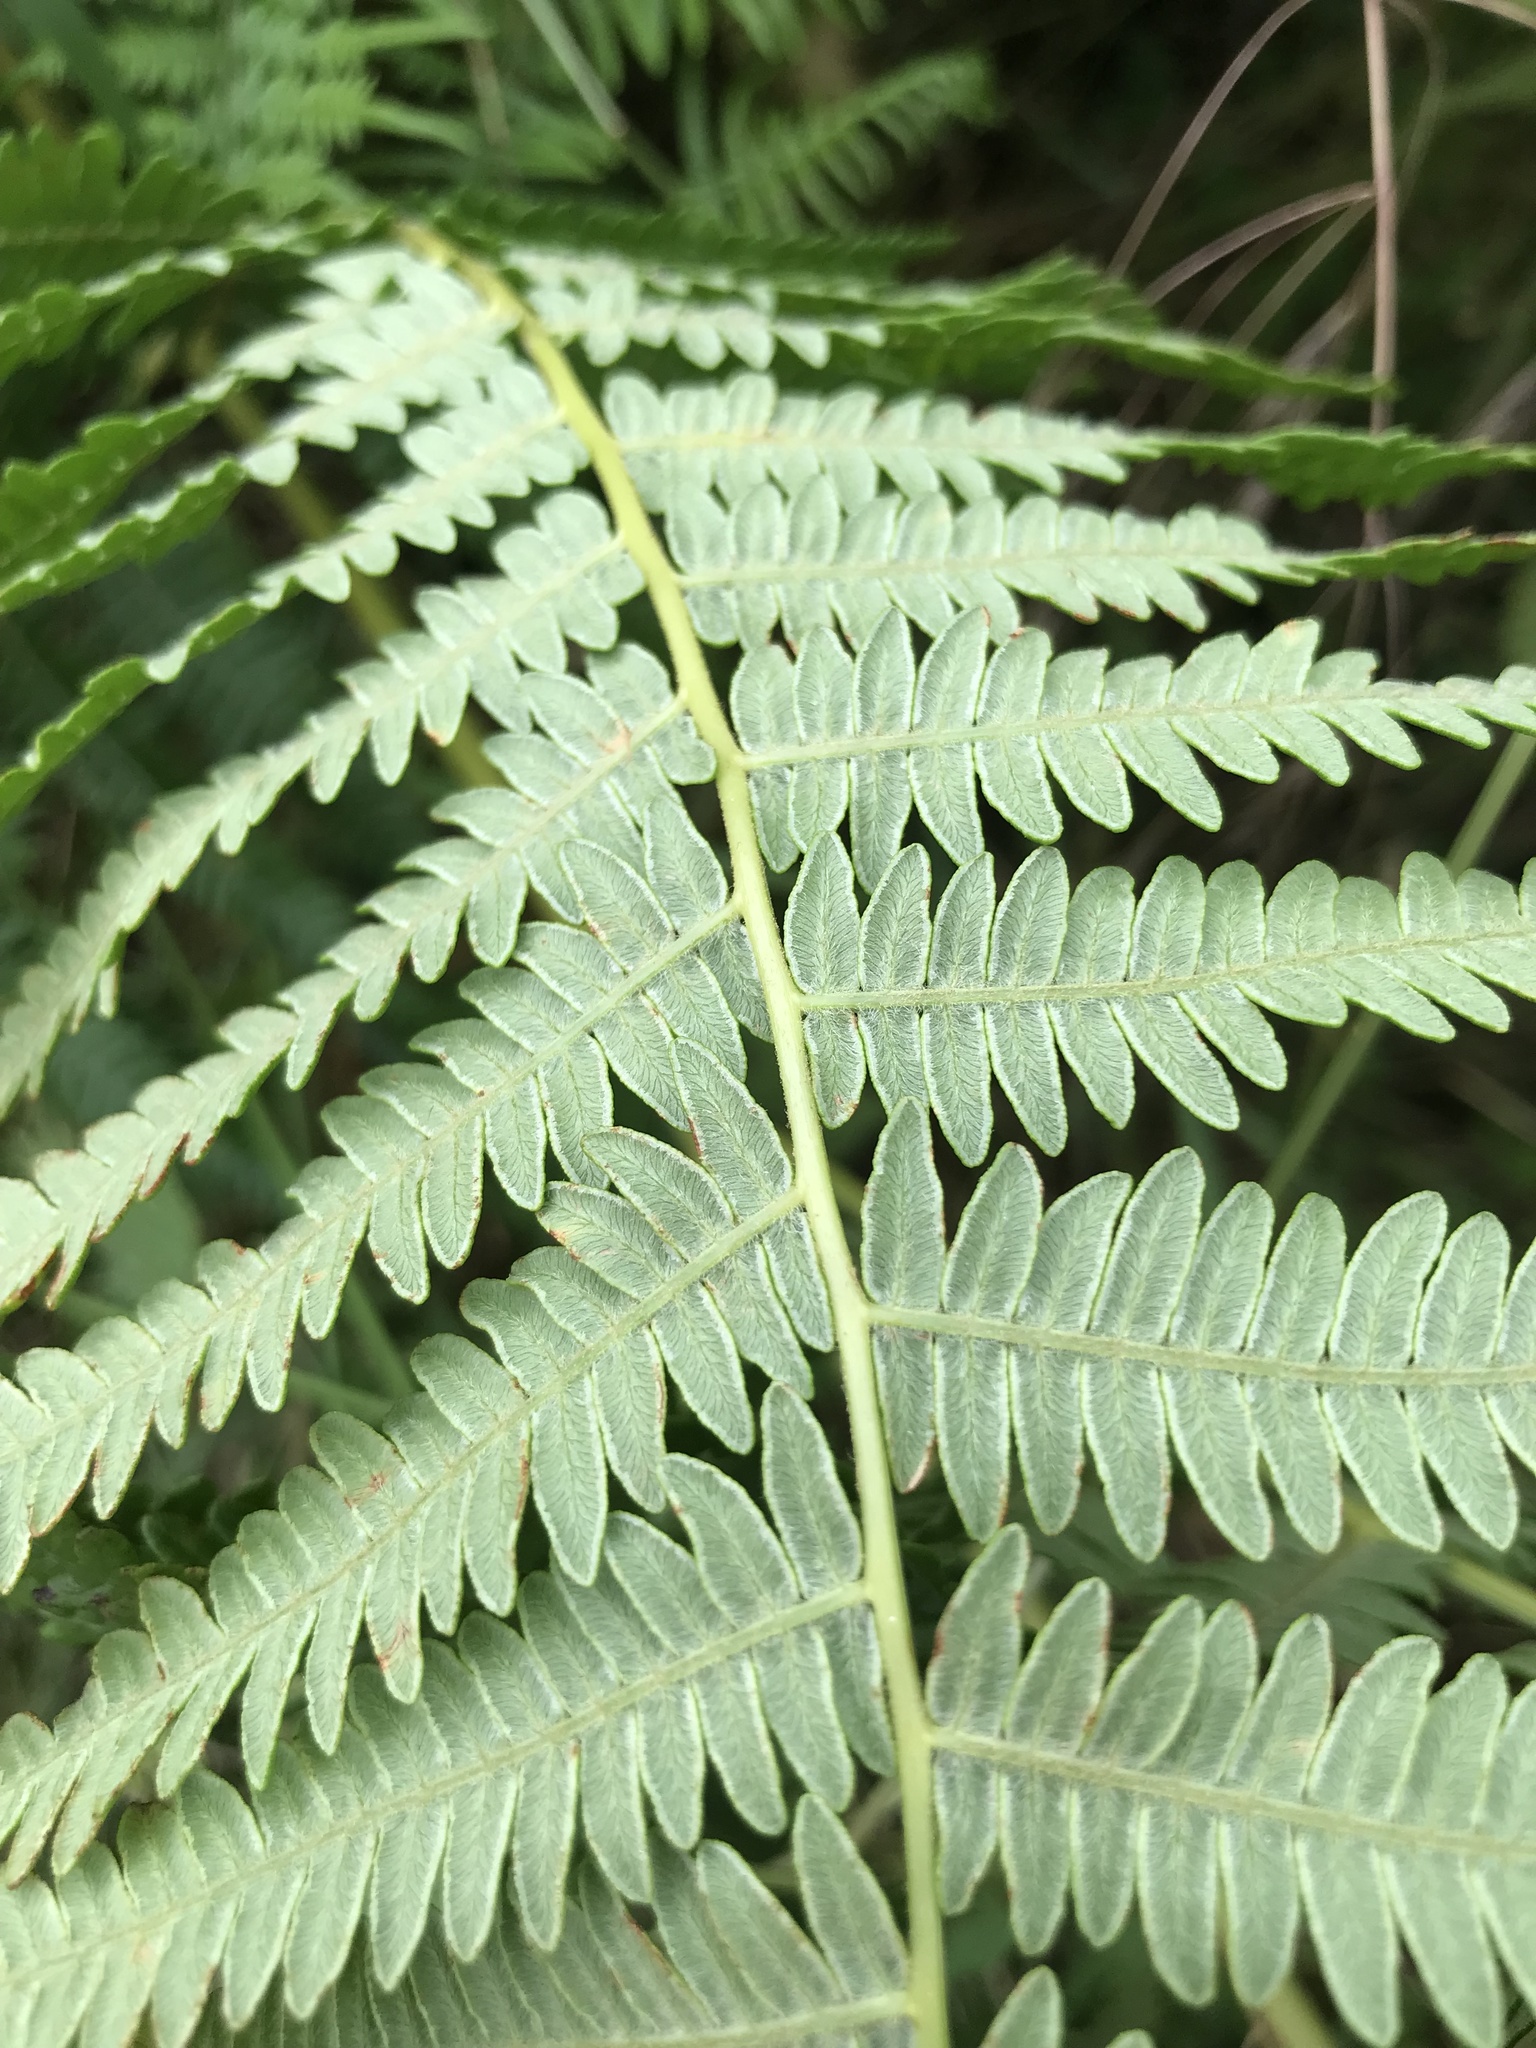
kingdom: Plantae
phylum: Tracheophyta
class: Polypodiopsida
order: Polypodiales
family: Dennstaedtiaceae
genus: Pteridium
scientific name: Pteridium aquilinum
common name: Bracken
